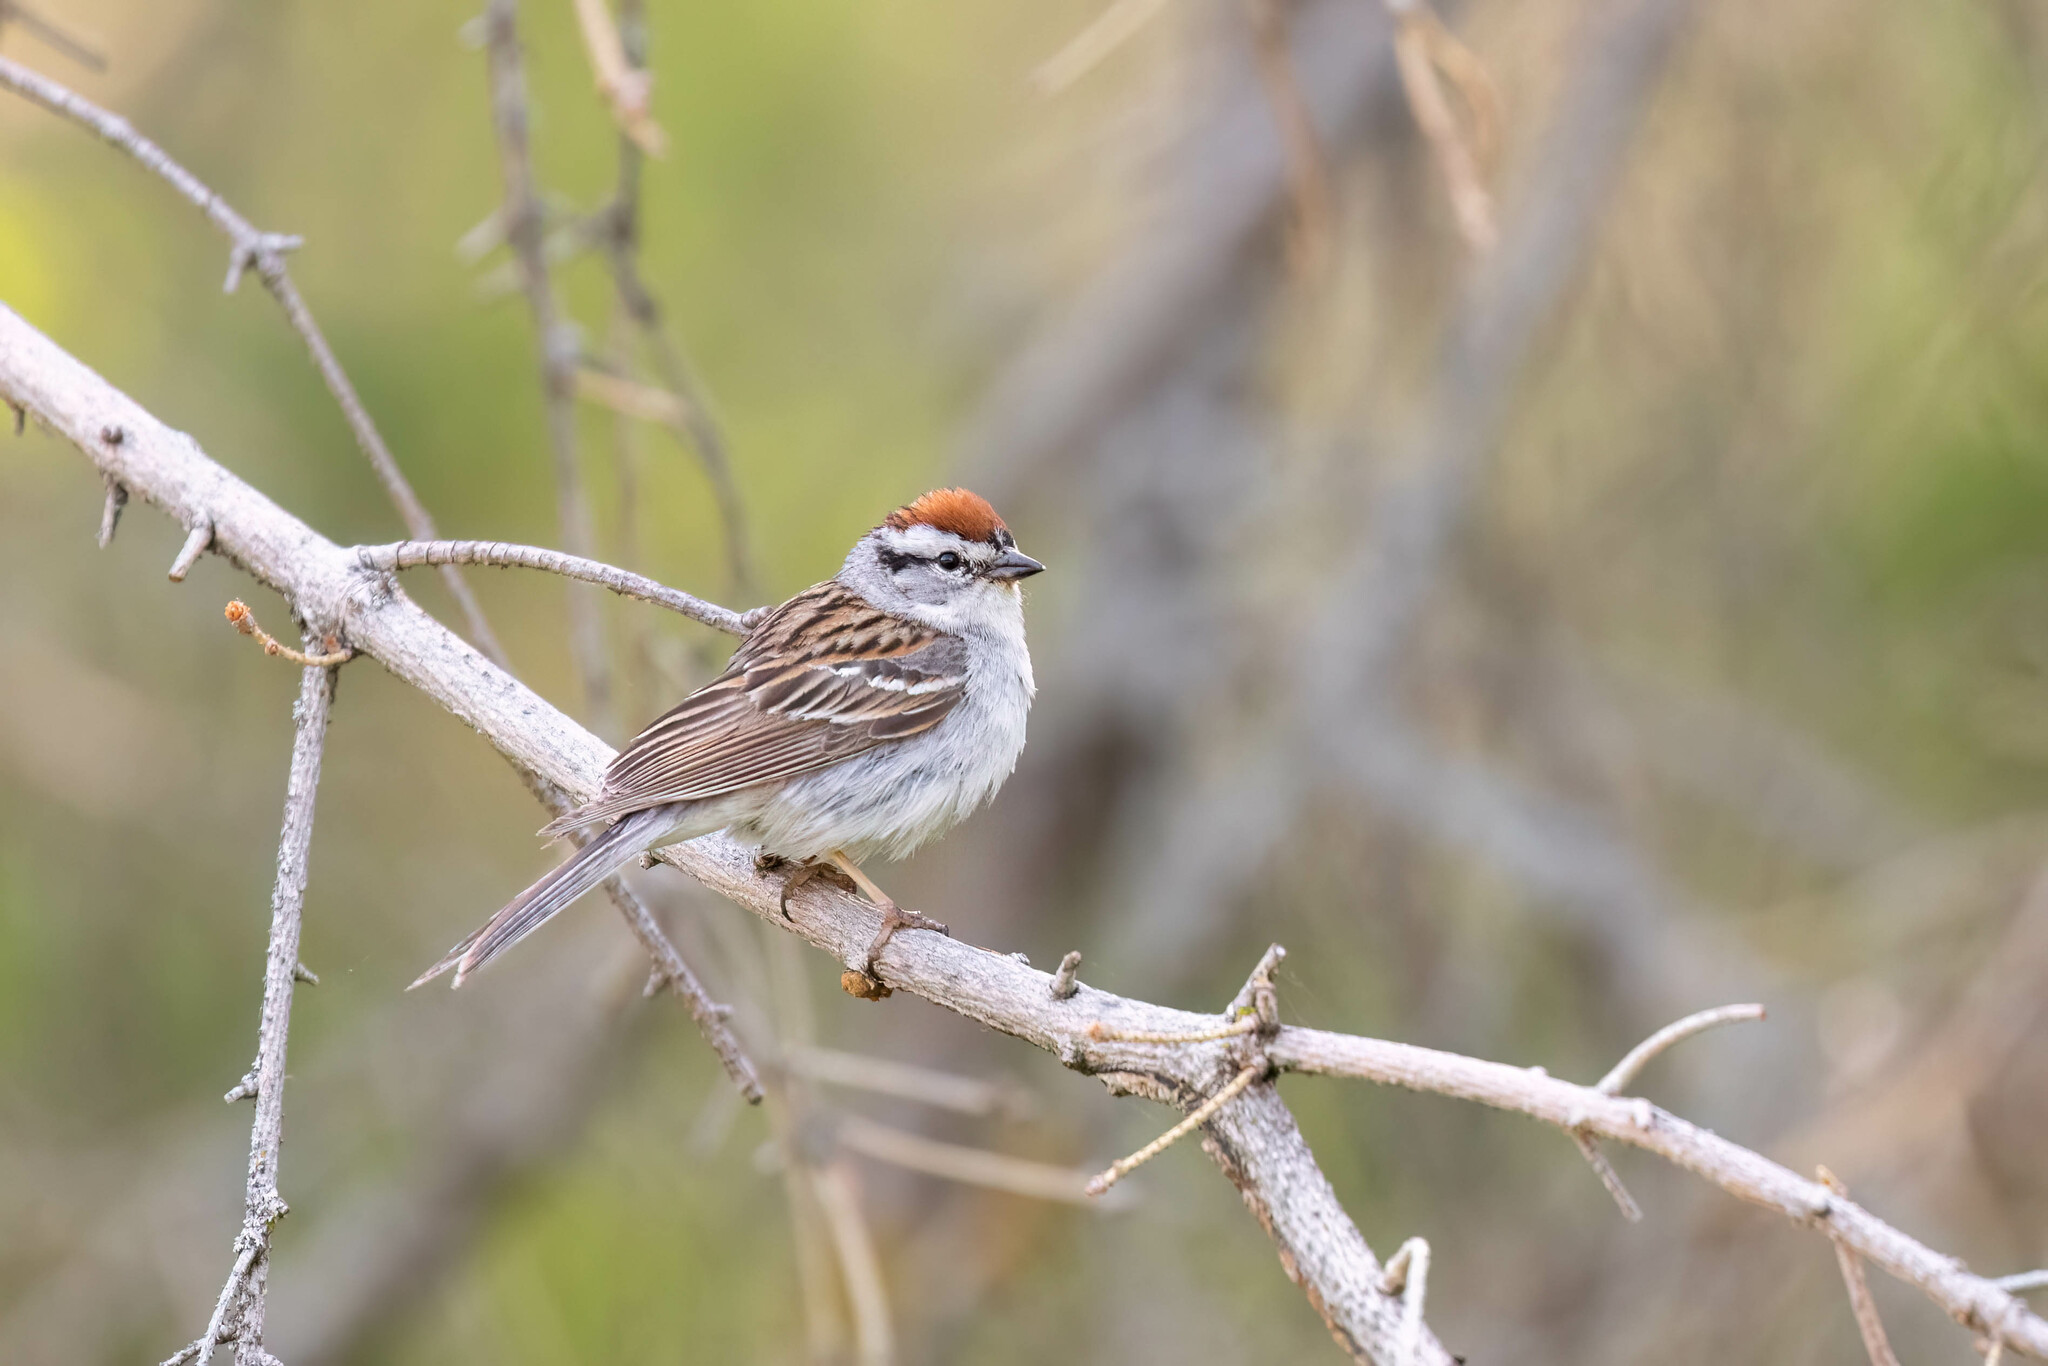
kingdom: Animalia
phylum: Chordata
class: Aves
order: Passeriformes
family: Passerellidae
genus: Spizella
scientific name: Spizella passerina
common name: Chipping sparrow
